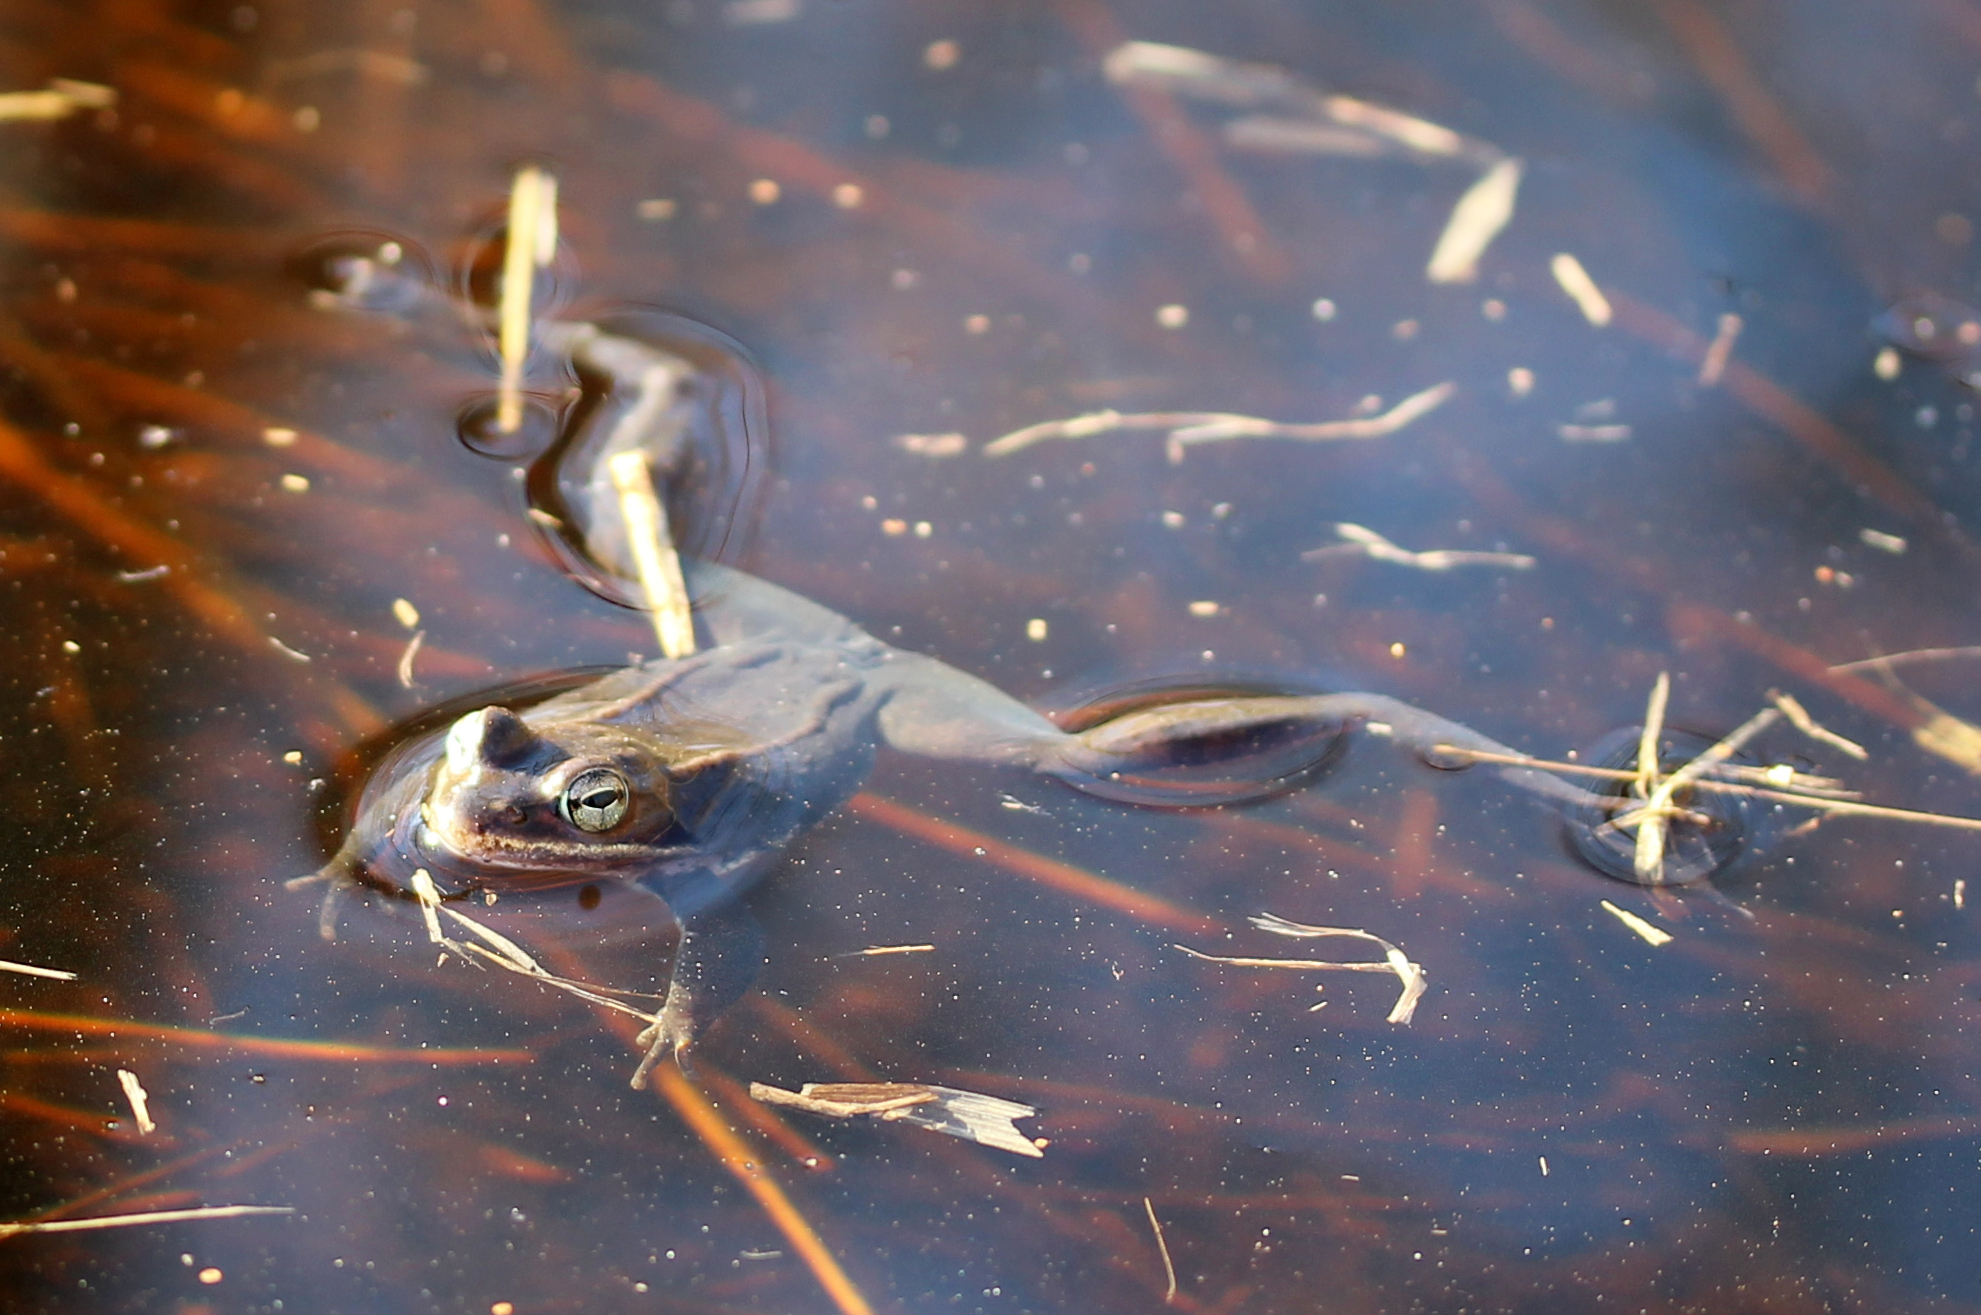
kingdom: Animalia
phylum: Chordata
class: Amphibia
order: Anura
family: Ranidae
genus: Lithobates
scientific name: Lithobates sylvaticus
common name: Wood frog
